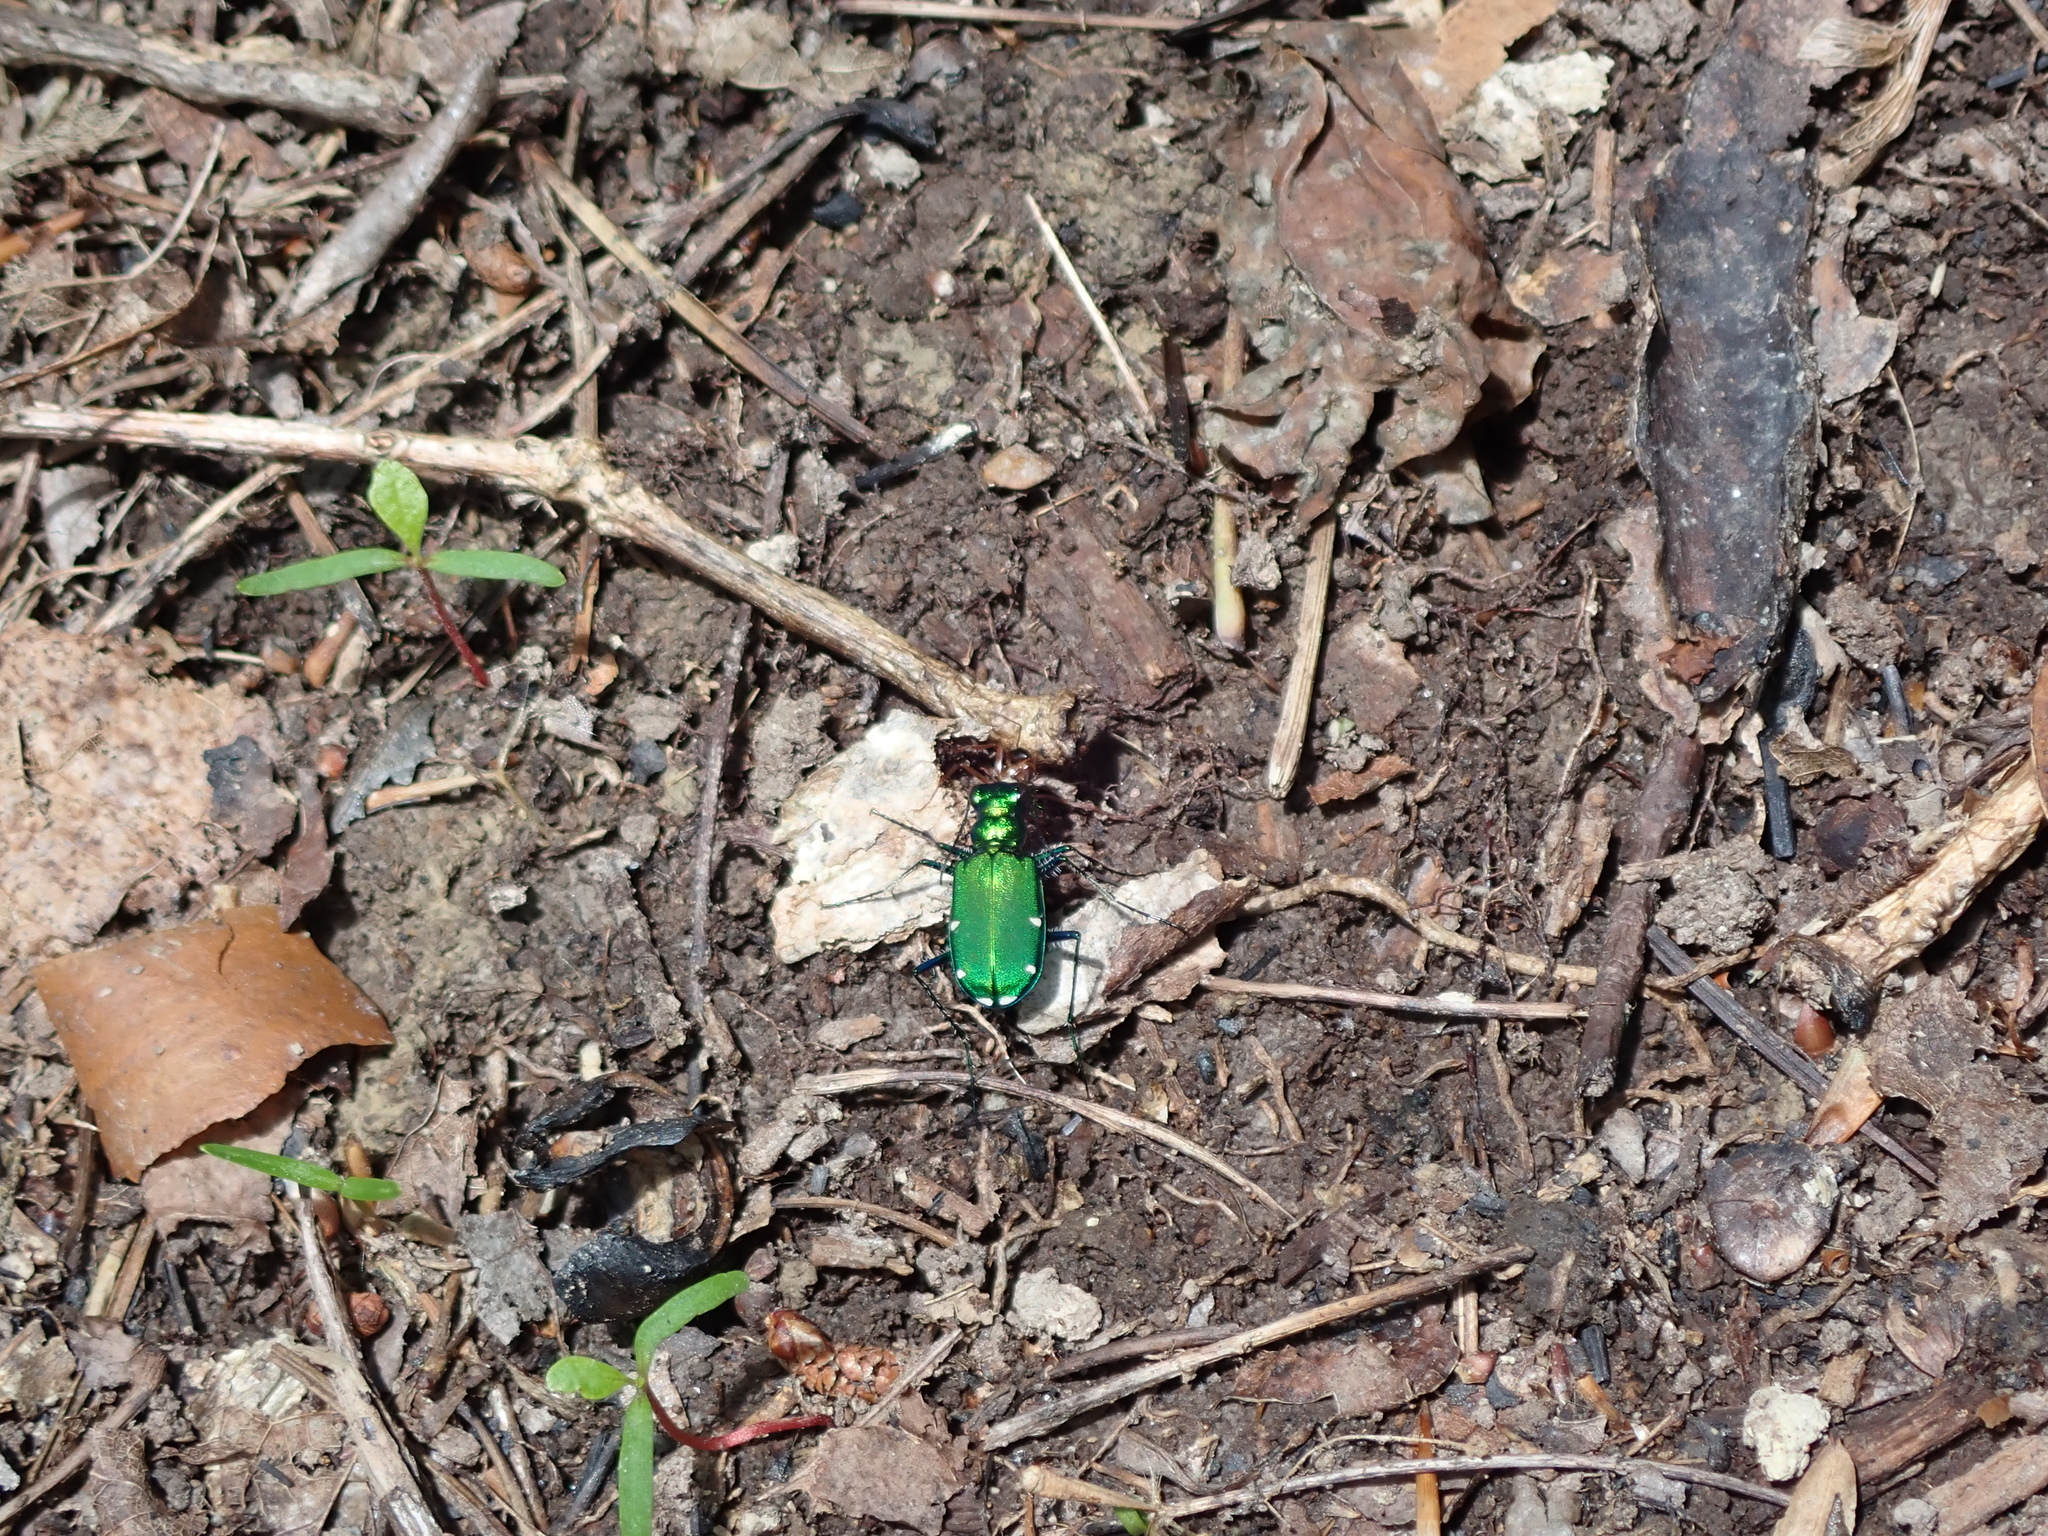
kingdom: Animalia
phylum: Arthropoda
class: Insecta
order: Coleoptera
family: Carabidae
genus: Cicindela
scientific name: Cicindela sexguttata
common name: Six-spotted tiger beetle
